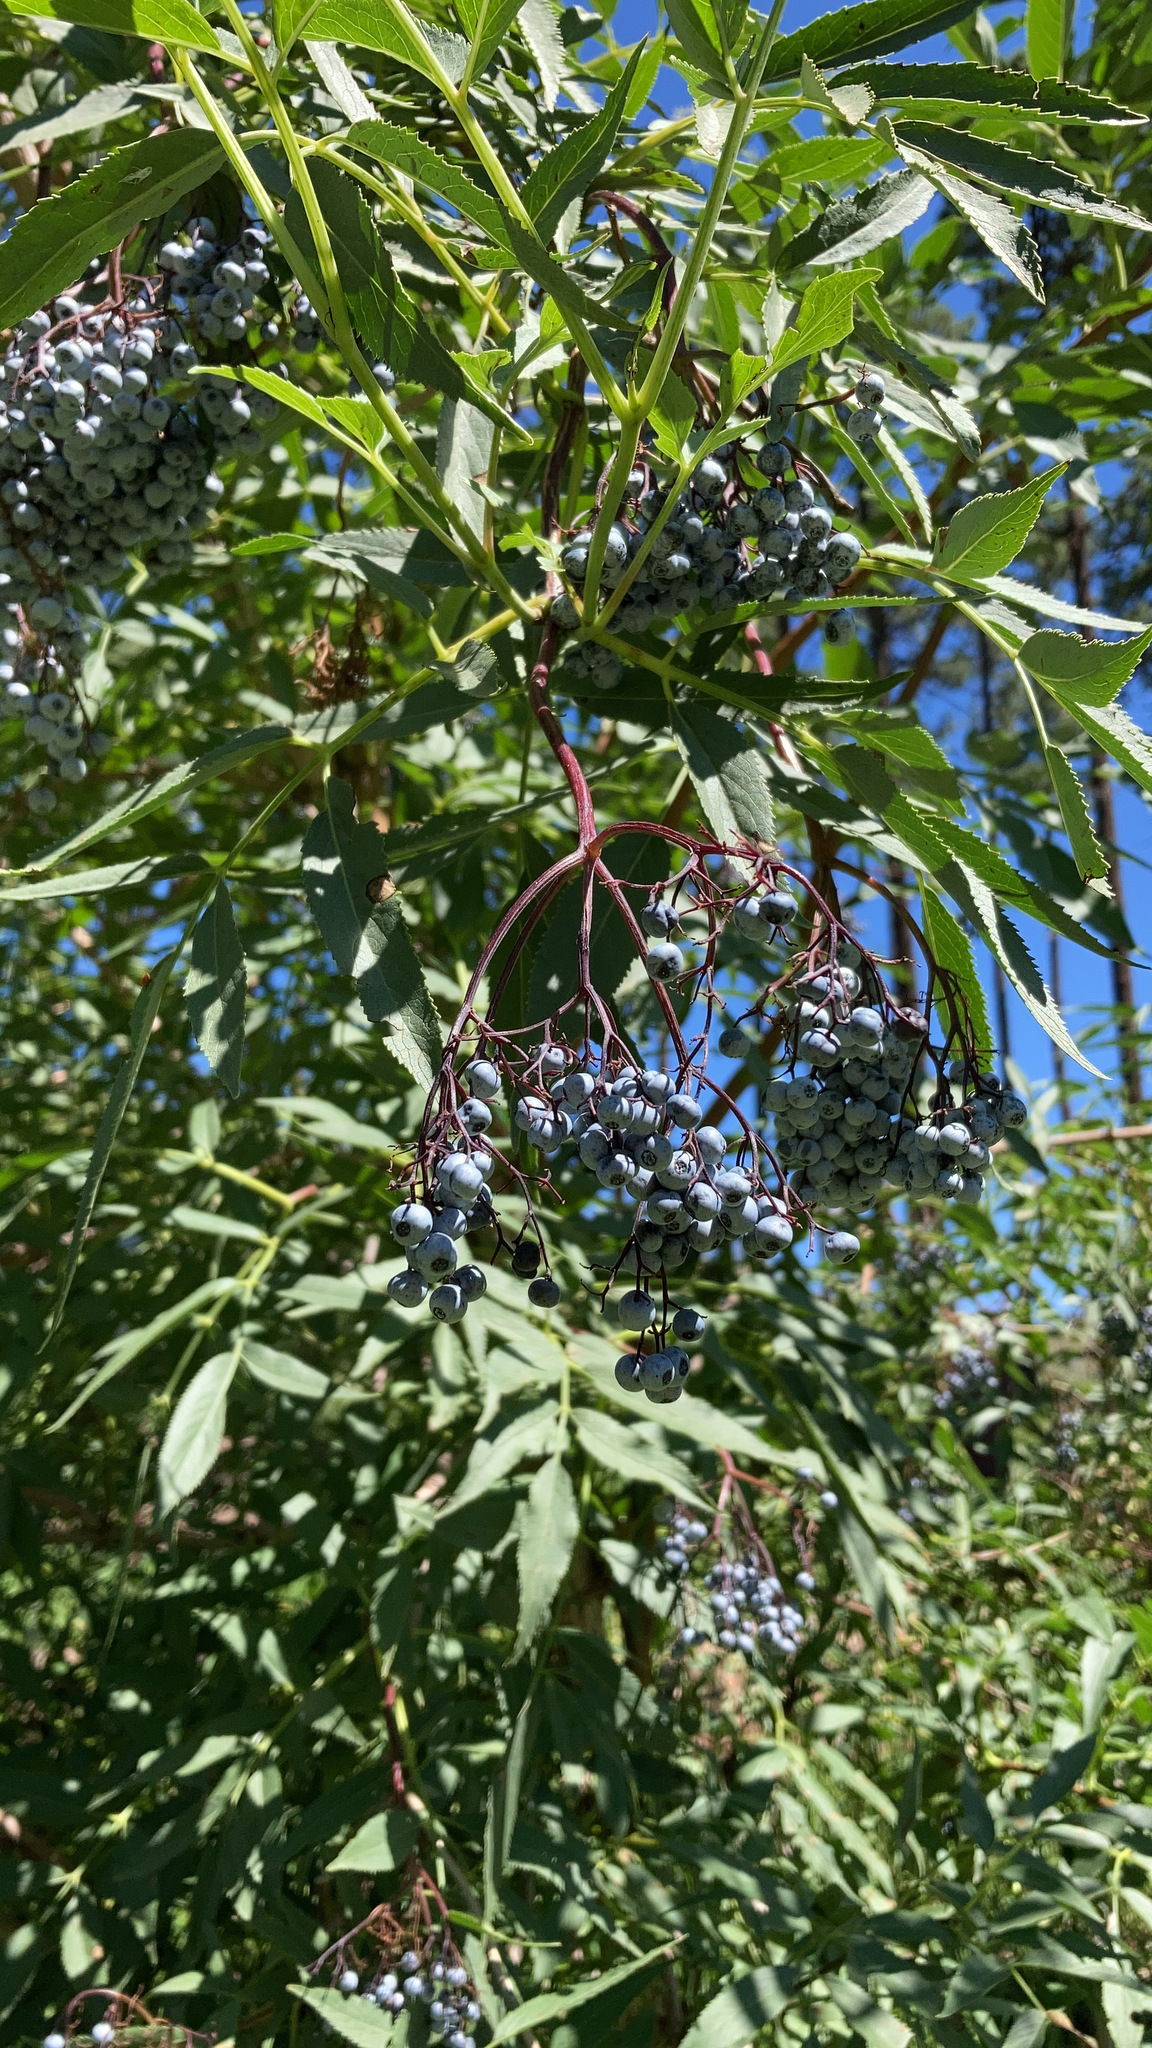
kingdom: Plantae
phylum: Tracheophyta
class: Magnoliopsida
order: Dipsacales
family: Viburnaceae
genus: Sambucus
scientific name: Sambucus cerulea
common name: Blue elder
